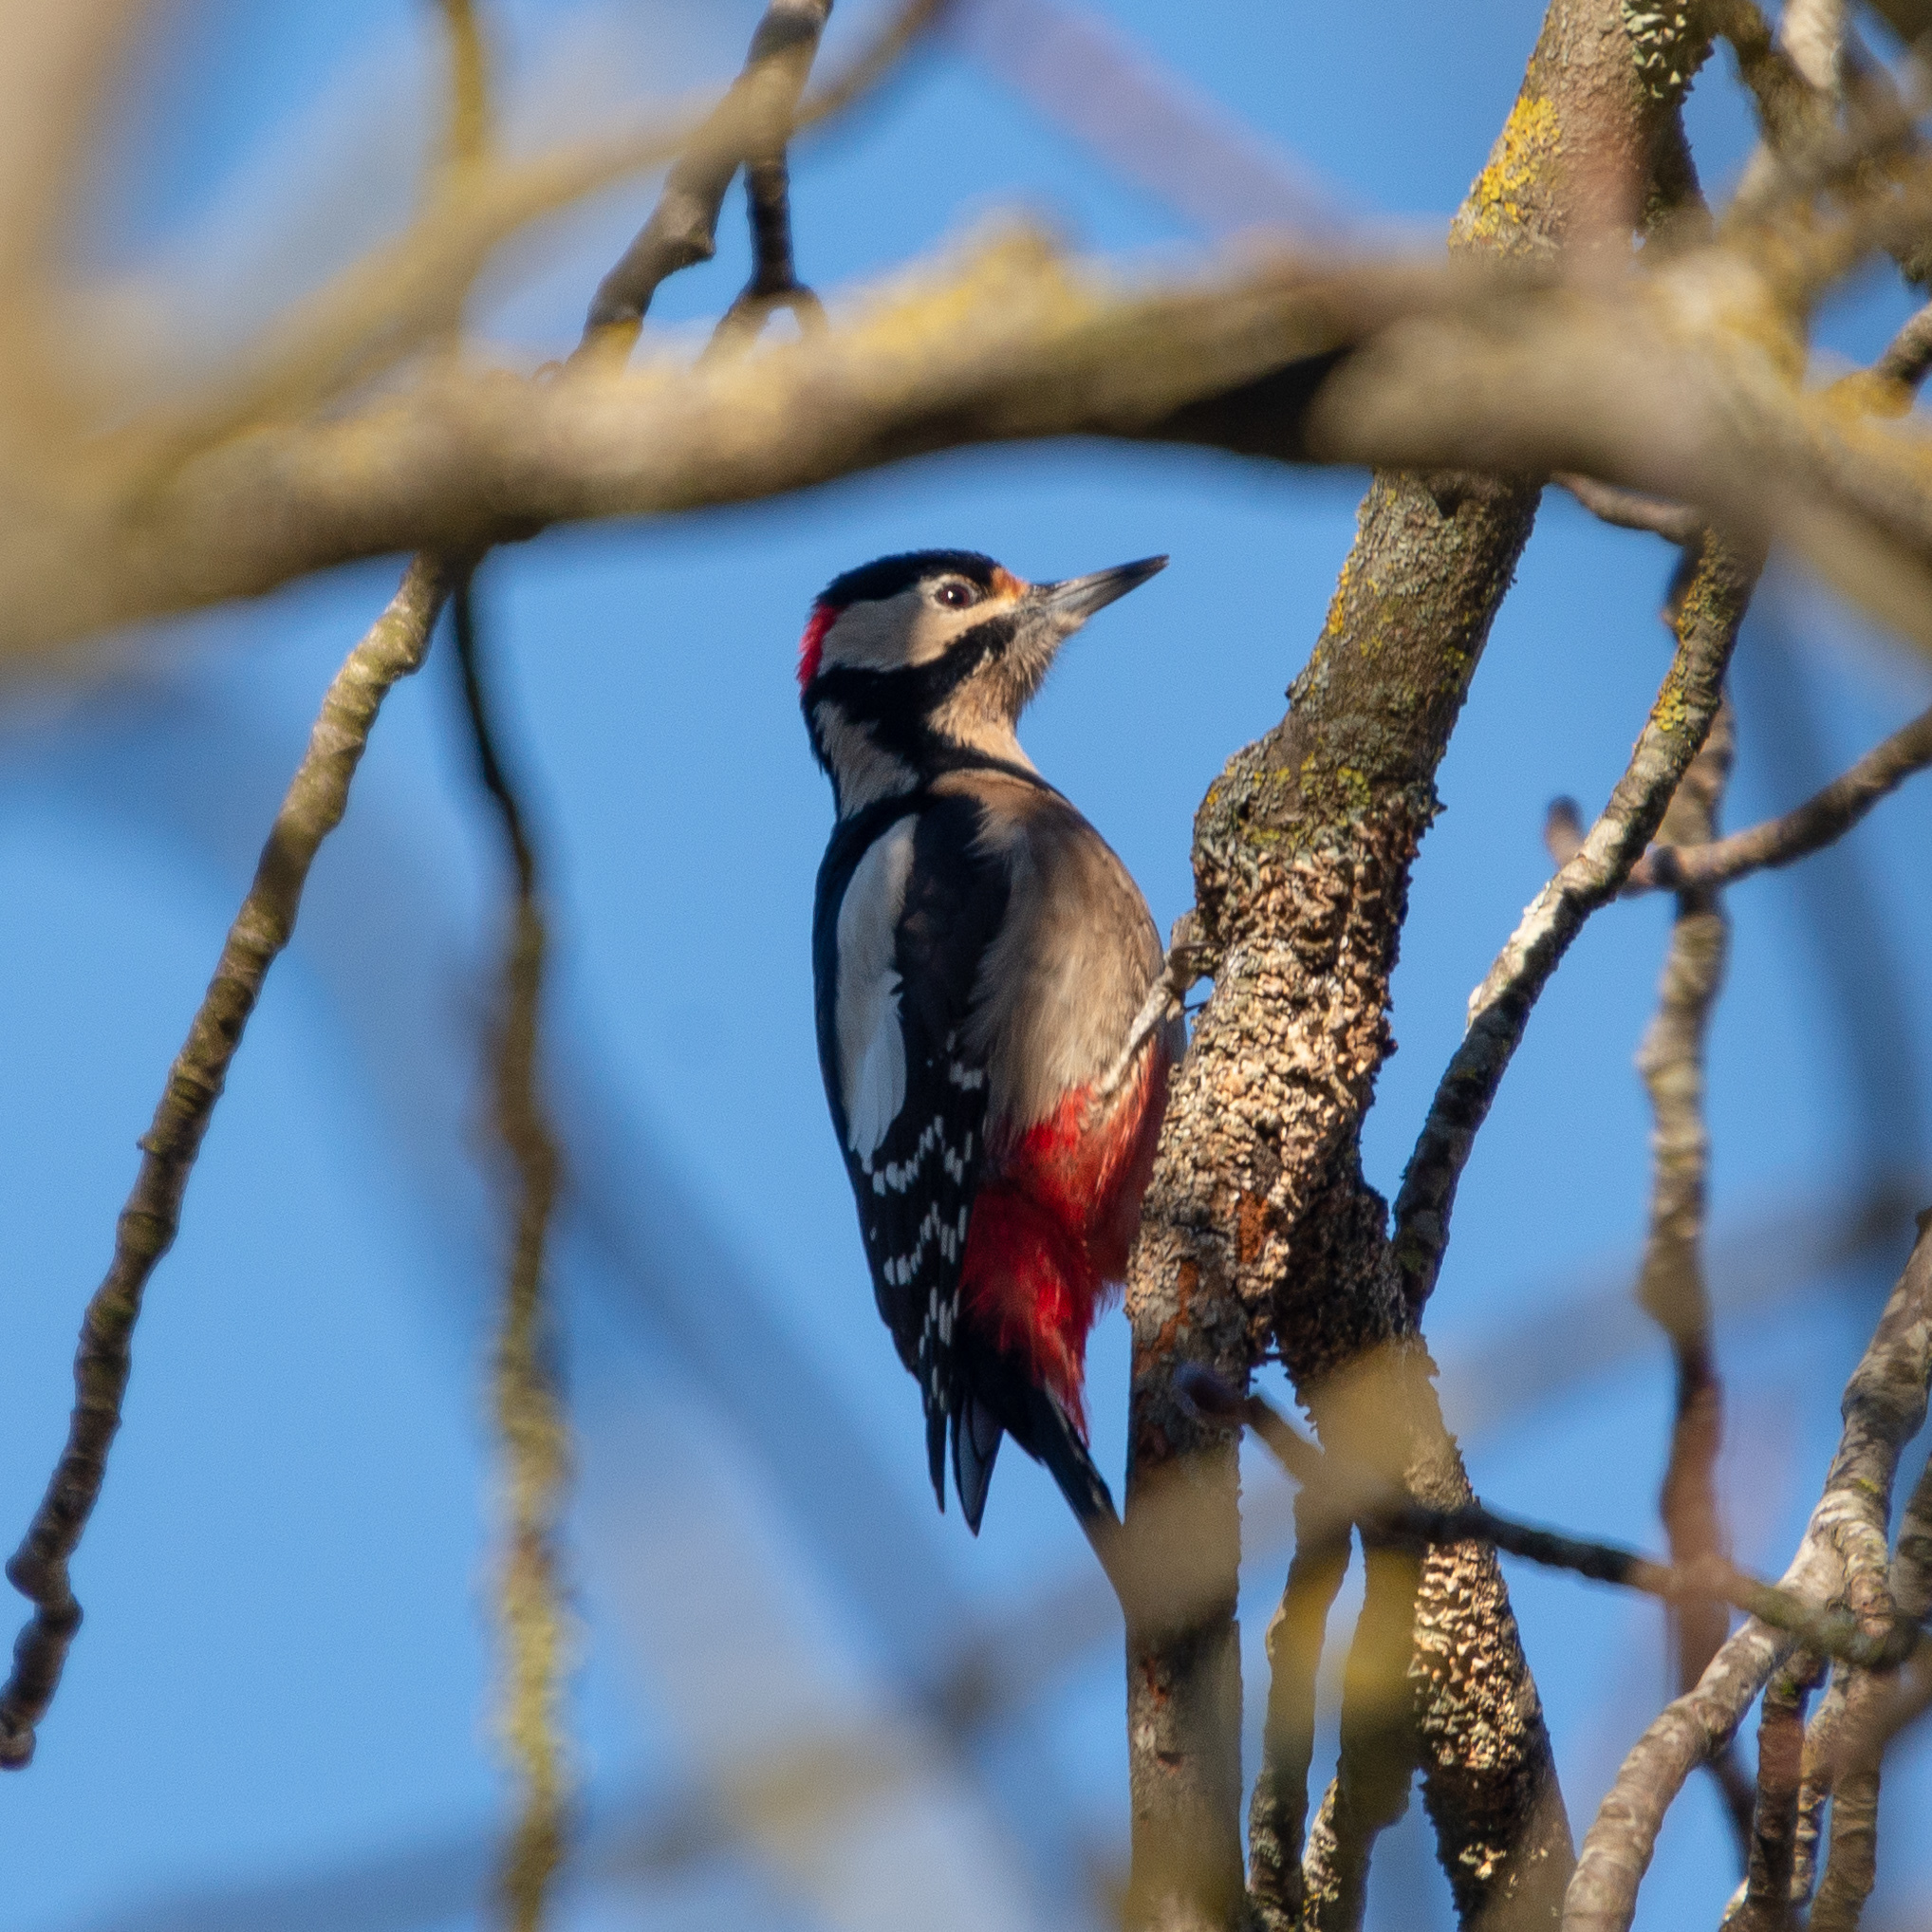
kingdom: Animalia
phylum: Chordata
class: Aves
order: Piciformes
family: Picidae
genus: Dendrocopos
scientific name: Dendrocopos major
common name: Great spotted woodpecker
